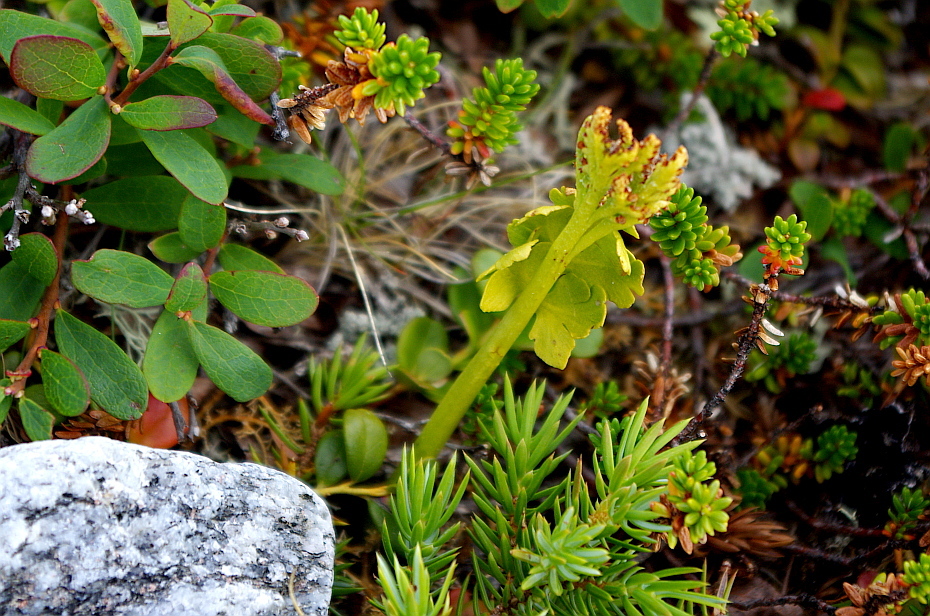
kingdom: Plantae
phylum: Tracheophyta
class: Polypodiopsida
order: Ophioglossales
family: Ophioglossaceae
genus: Botrychium
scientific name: Botrychium boreale
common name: Boreal moonwort
